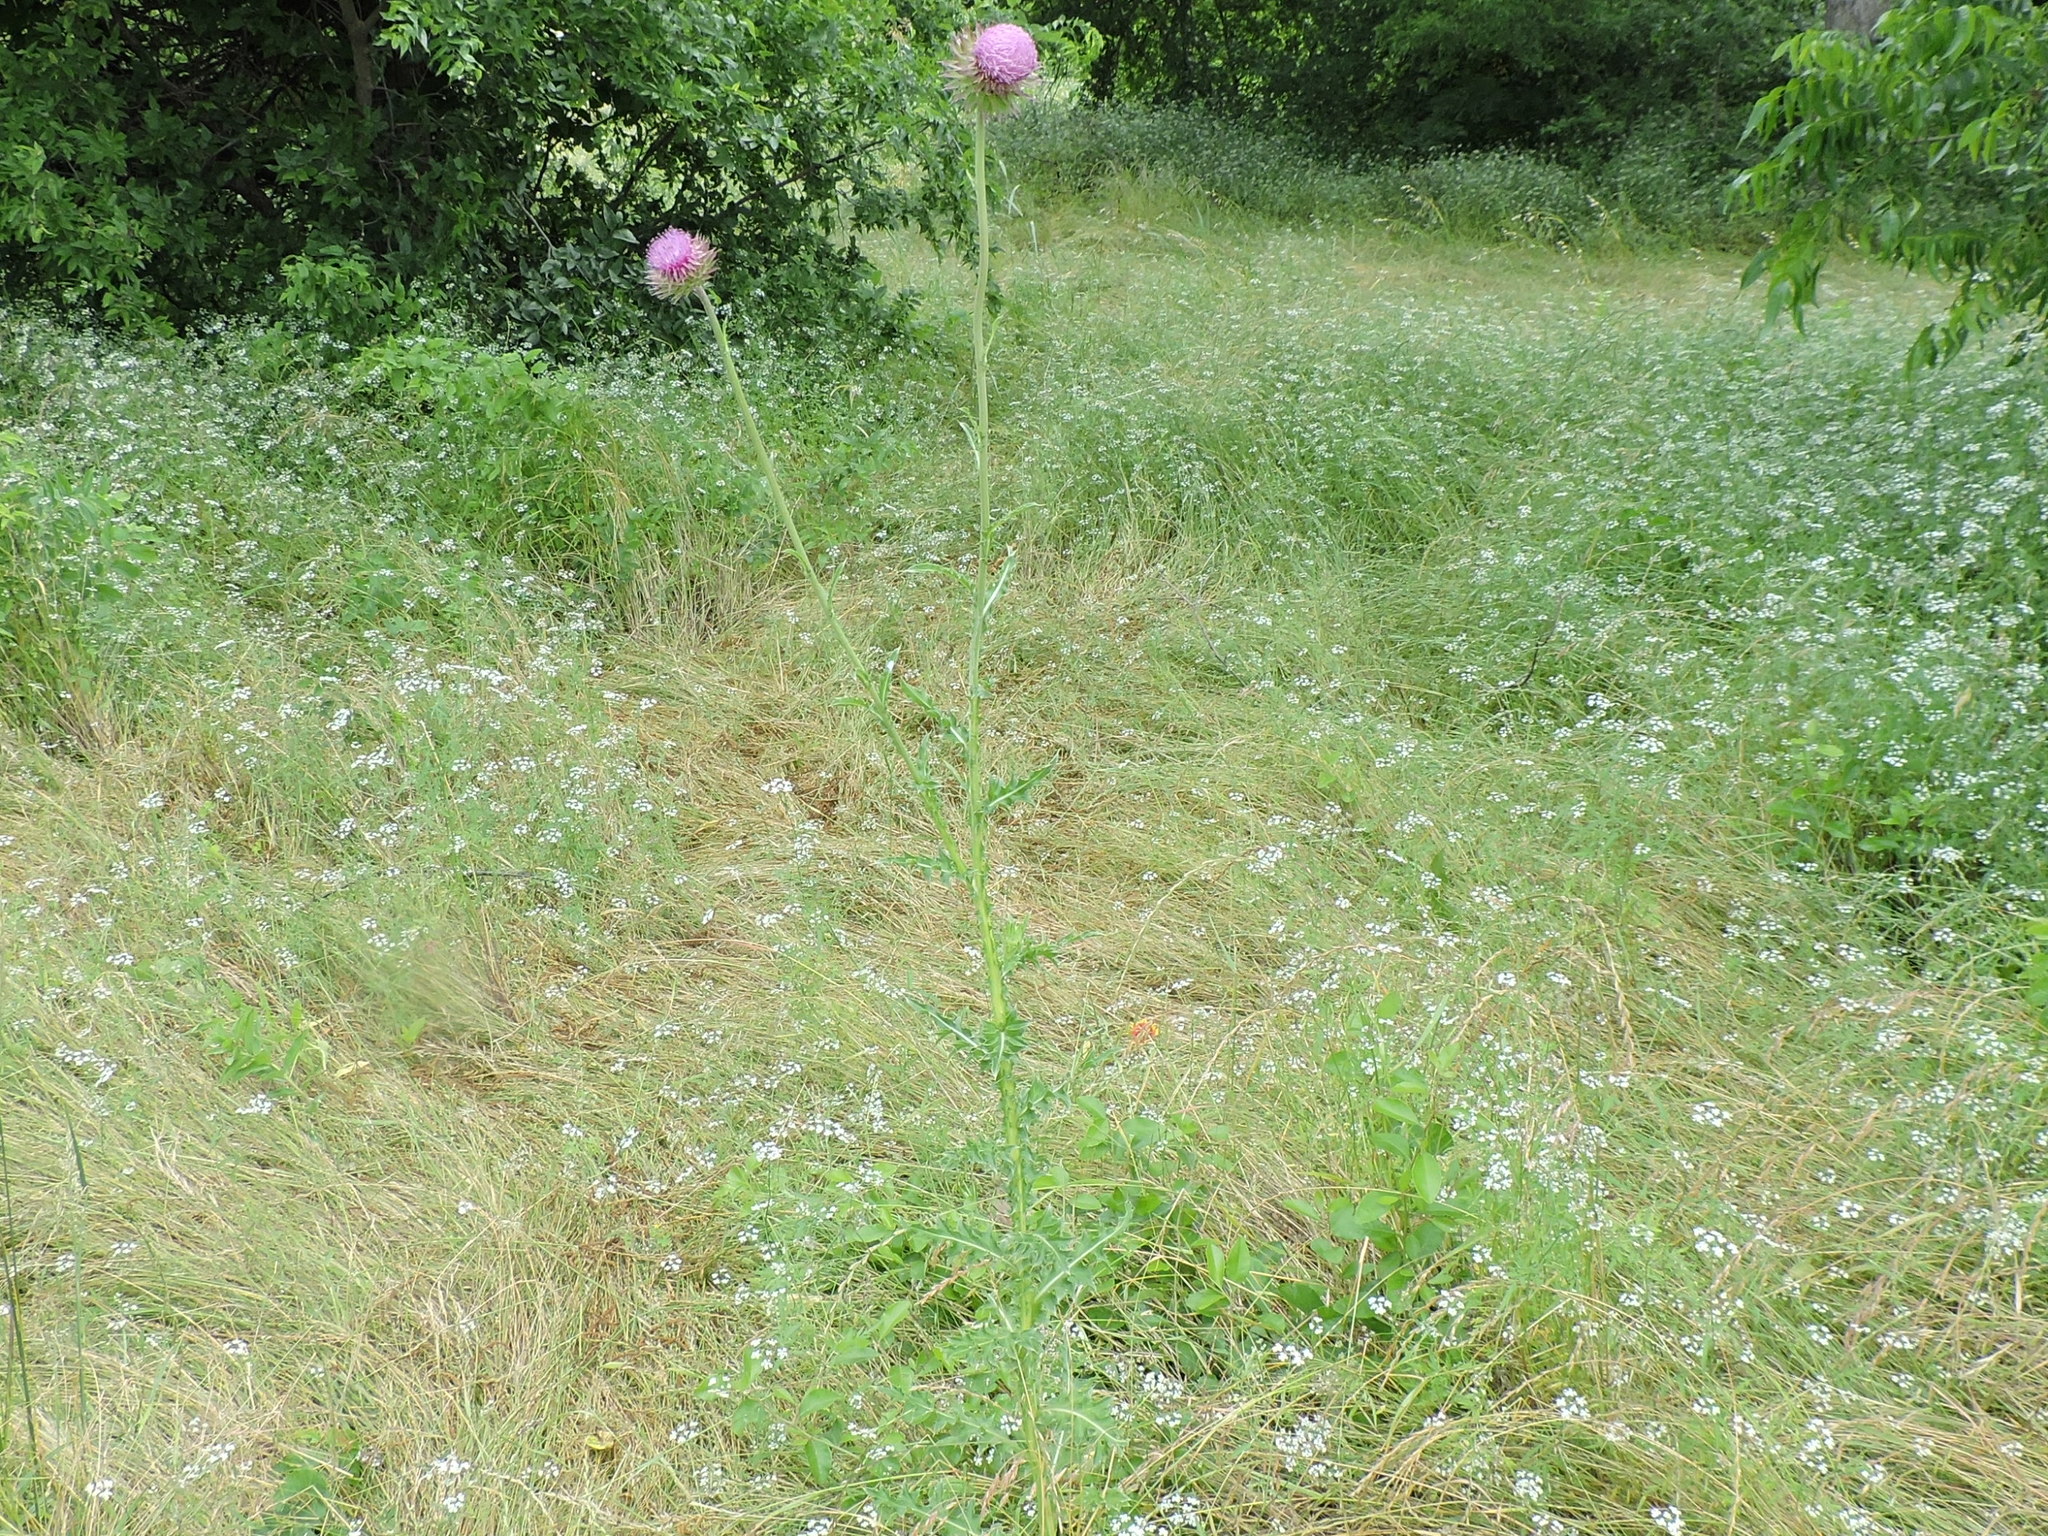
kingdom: Plantae
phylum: Tracheophyta
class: Magnoliopsida
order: Asterales
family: Asteraceae
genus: Carduus
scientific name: Carduus nutans
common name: Musk thistle
